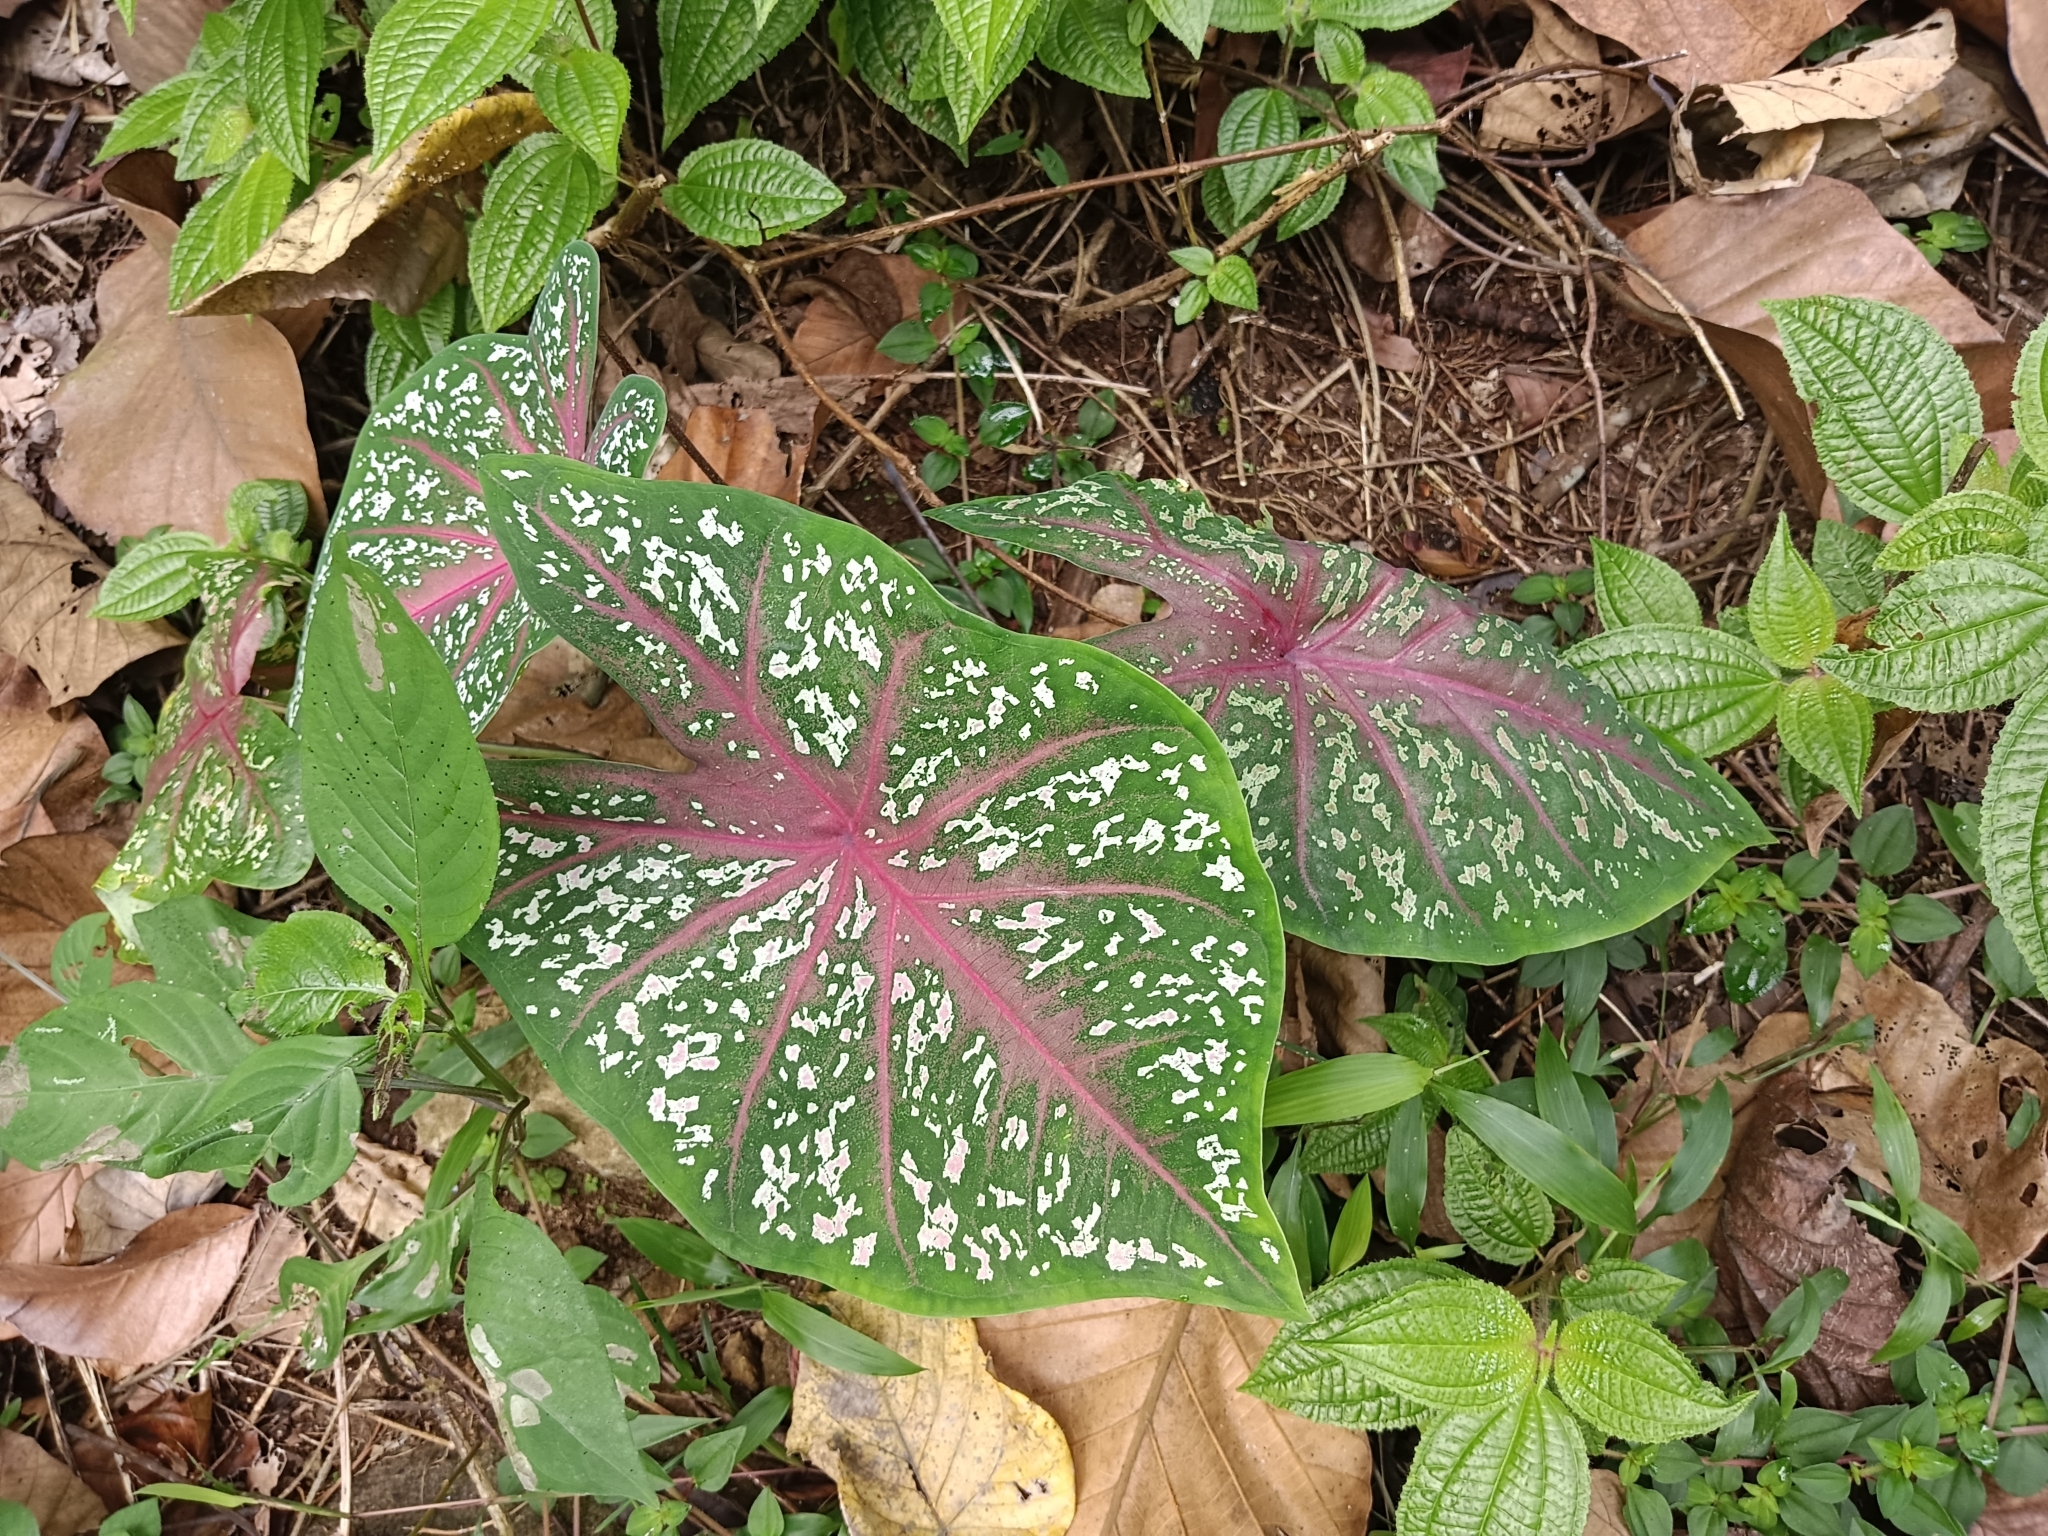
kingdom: Plantae
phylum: Tracheophyta
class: Liliopsida
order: Alismatales
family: Araceae
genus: Caladium
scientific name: Caladium bicolor
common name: Artist's pallet
